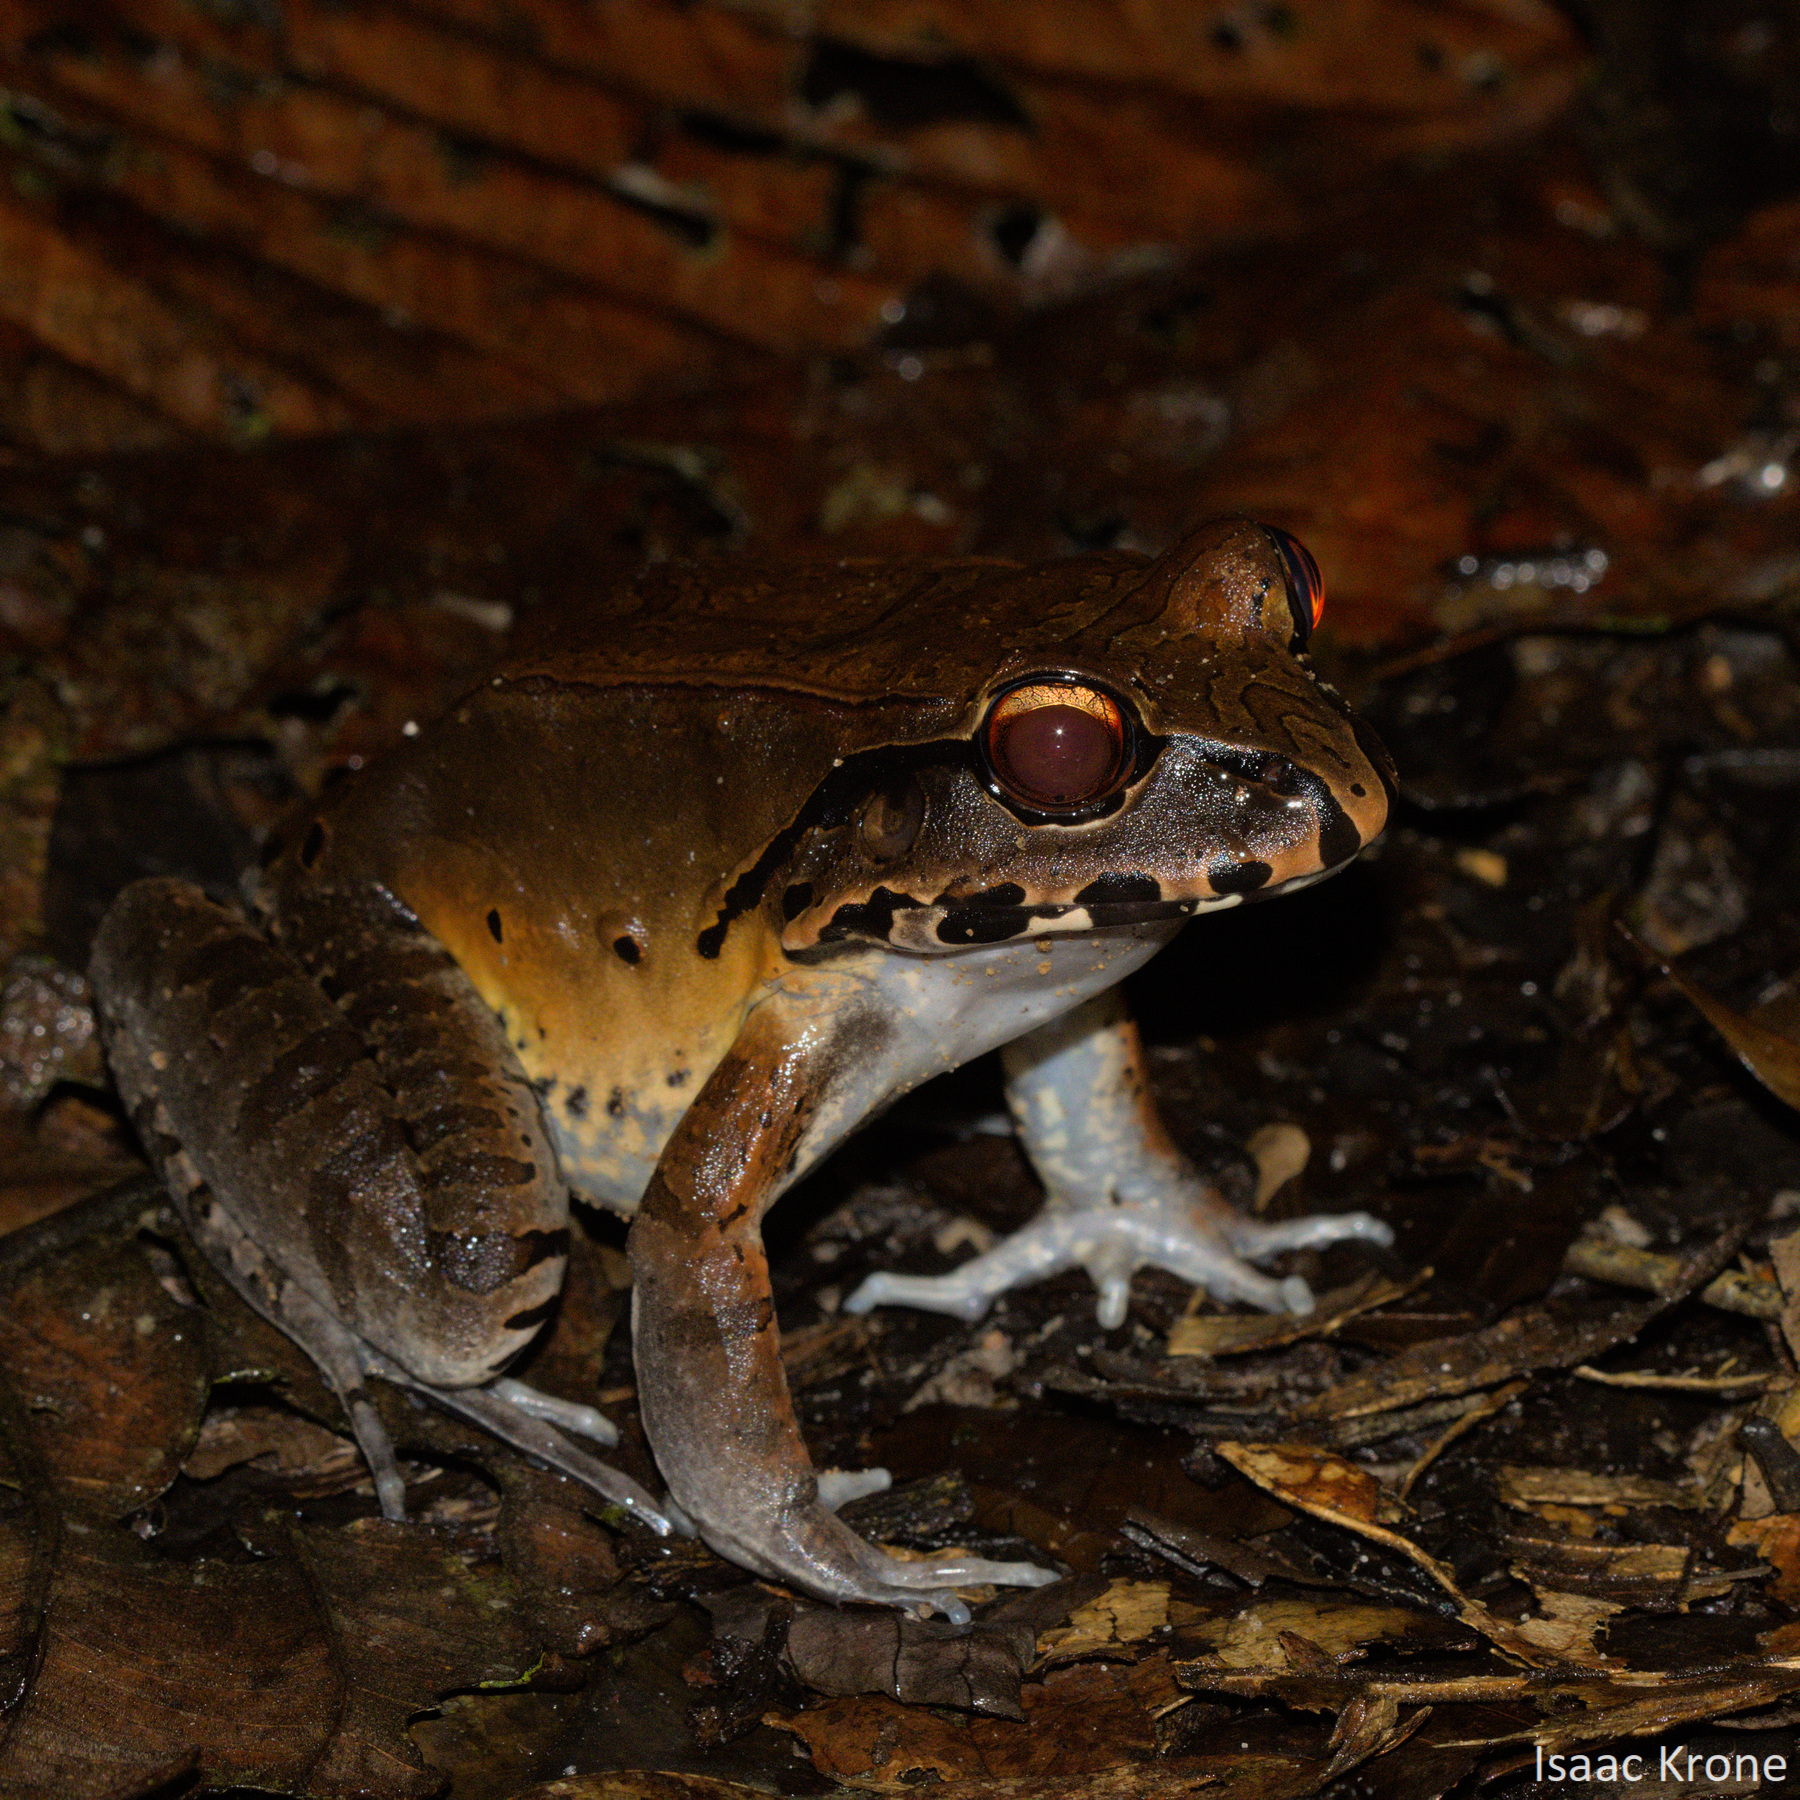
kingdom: Animalia
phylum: Chordata
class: Amphibia
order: Anura
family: Leptodactylidae
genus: Leptodactylus
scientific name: Leptodactylus pentadactylus
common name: Smoky jungle frog
